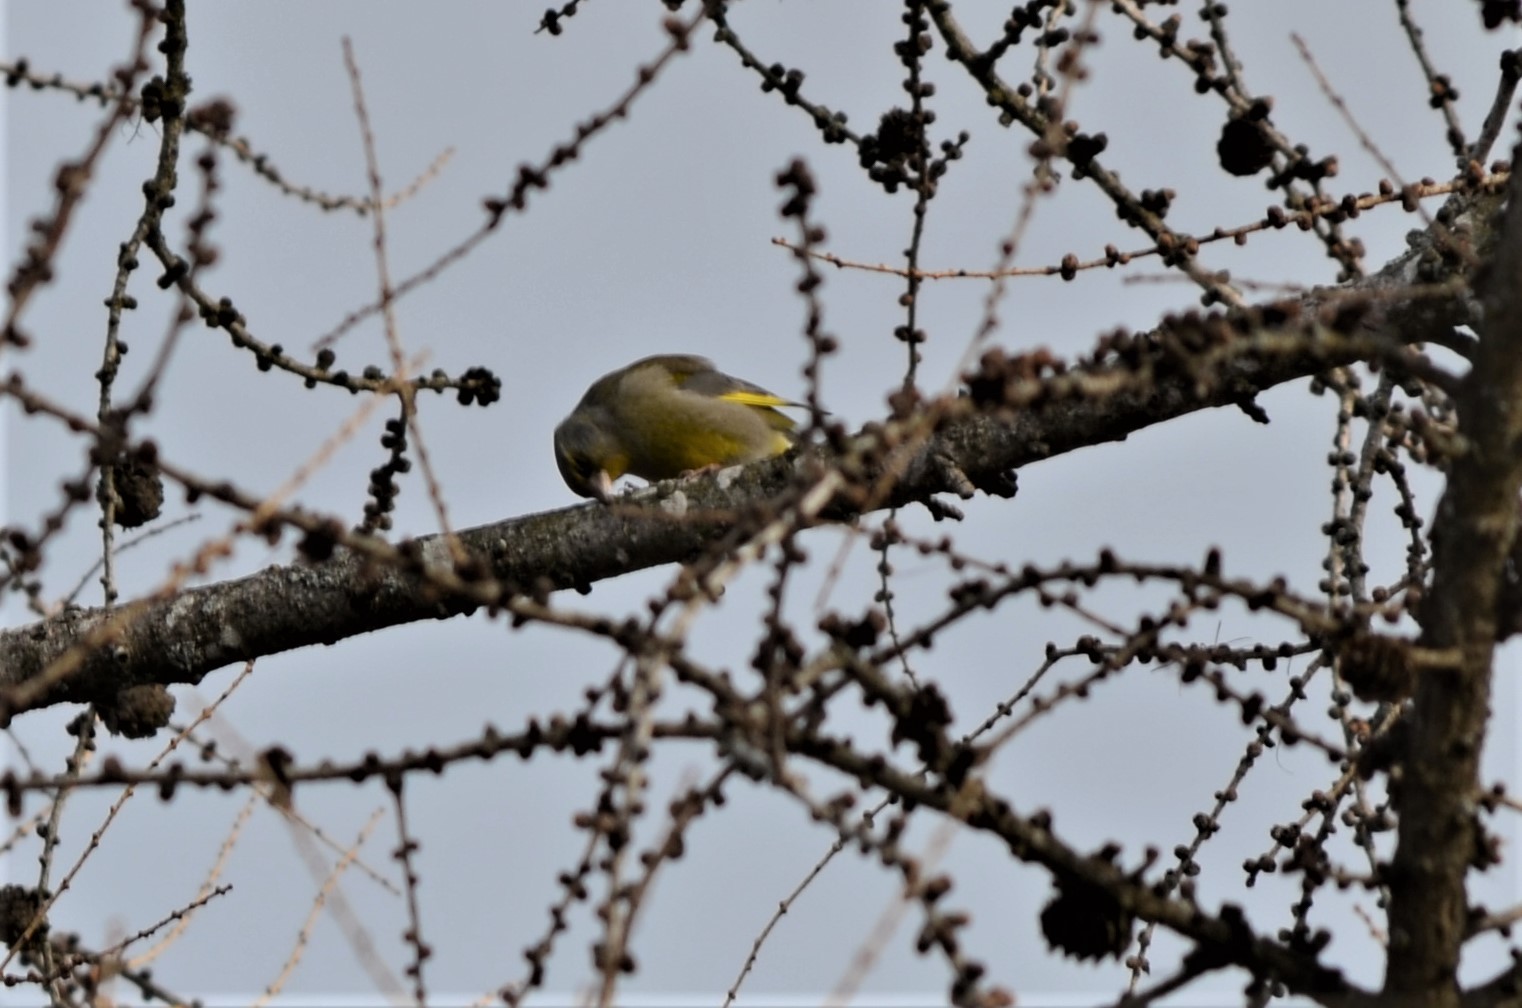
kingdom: Plantae
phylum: Tracheophyta
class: Liliopsida
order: Poales
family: Poaceae
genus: Chloris
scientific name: Chloris chloris
